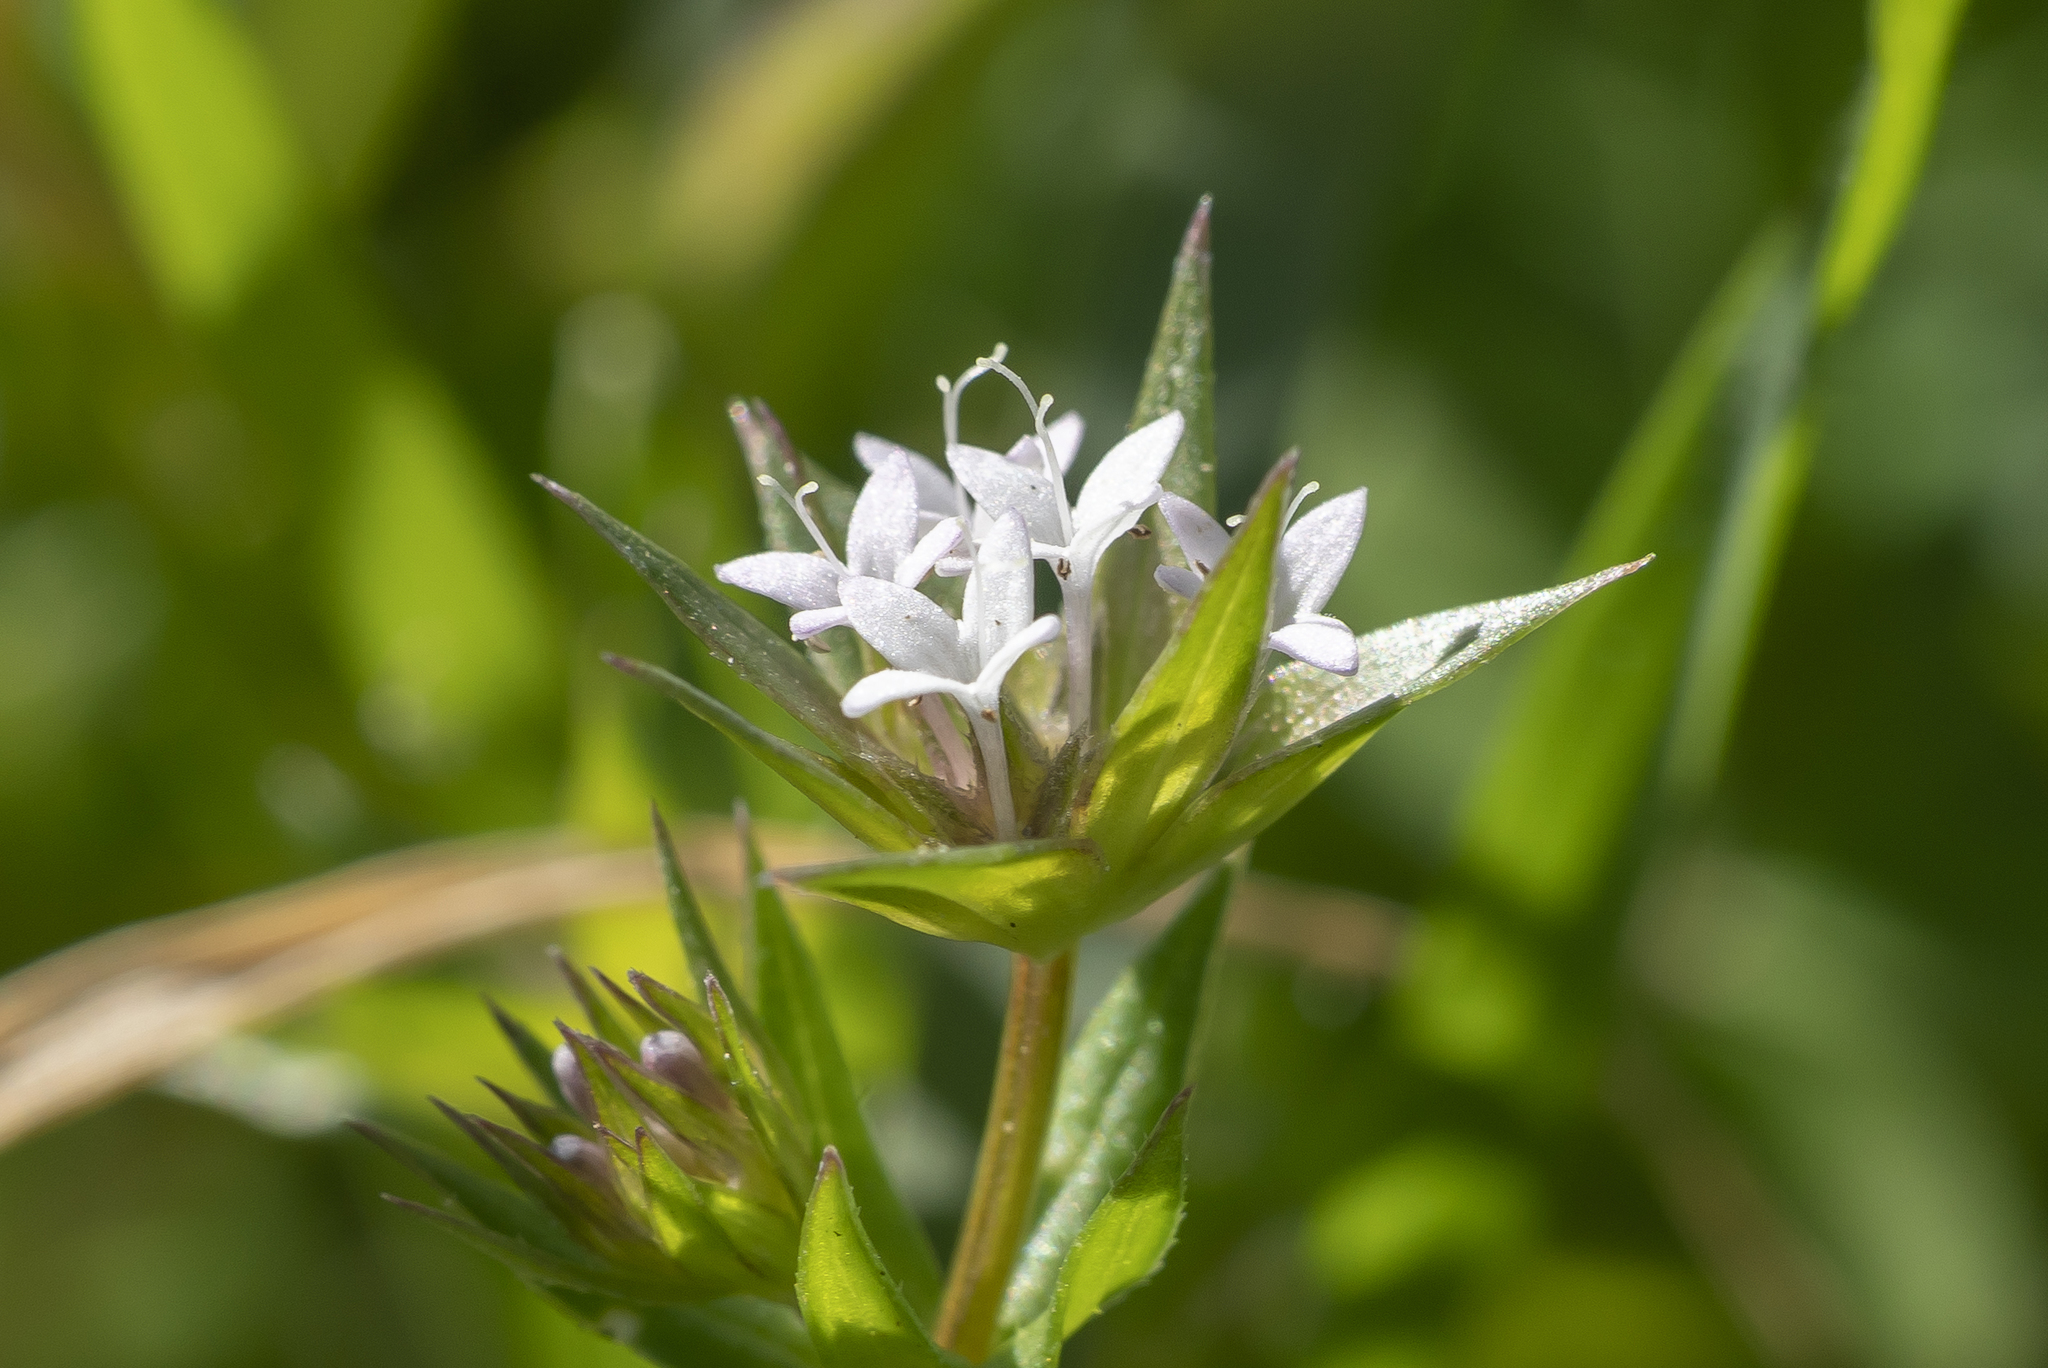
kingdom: Plantae
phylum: Tracheophyta
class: Magnoliopsida
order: Gentianales
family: Rubiaceae
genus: Sherardia
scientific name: Sherardia arvensis
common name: Field madder
